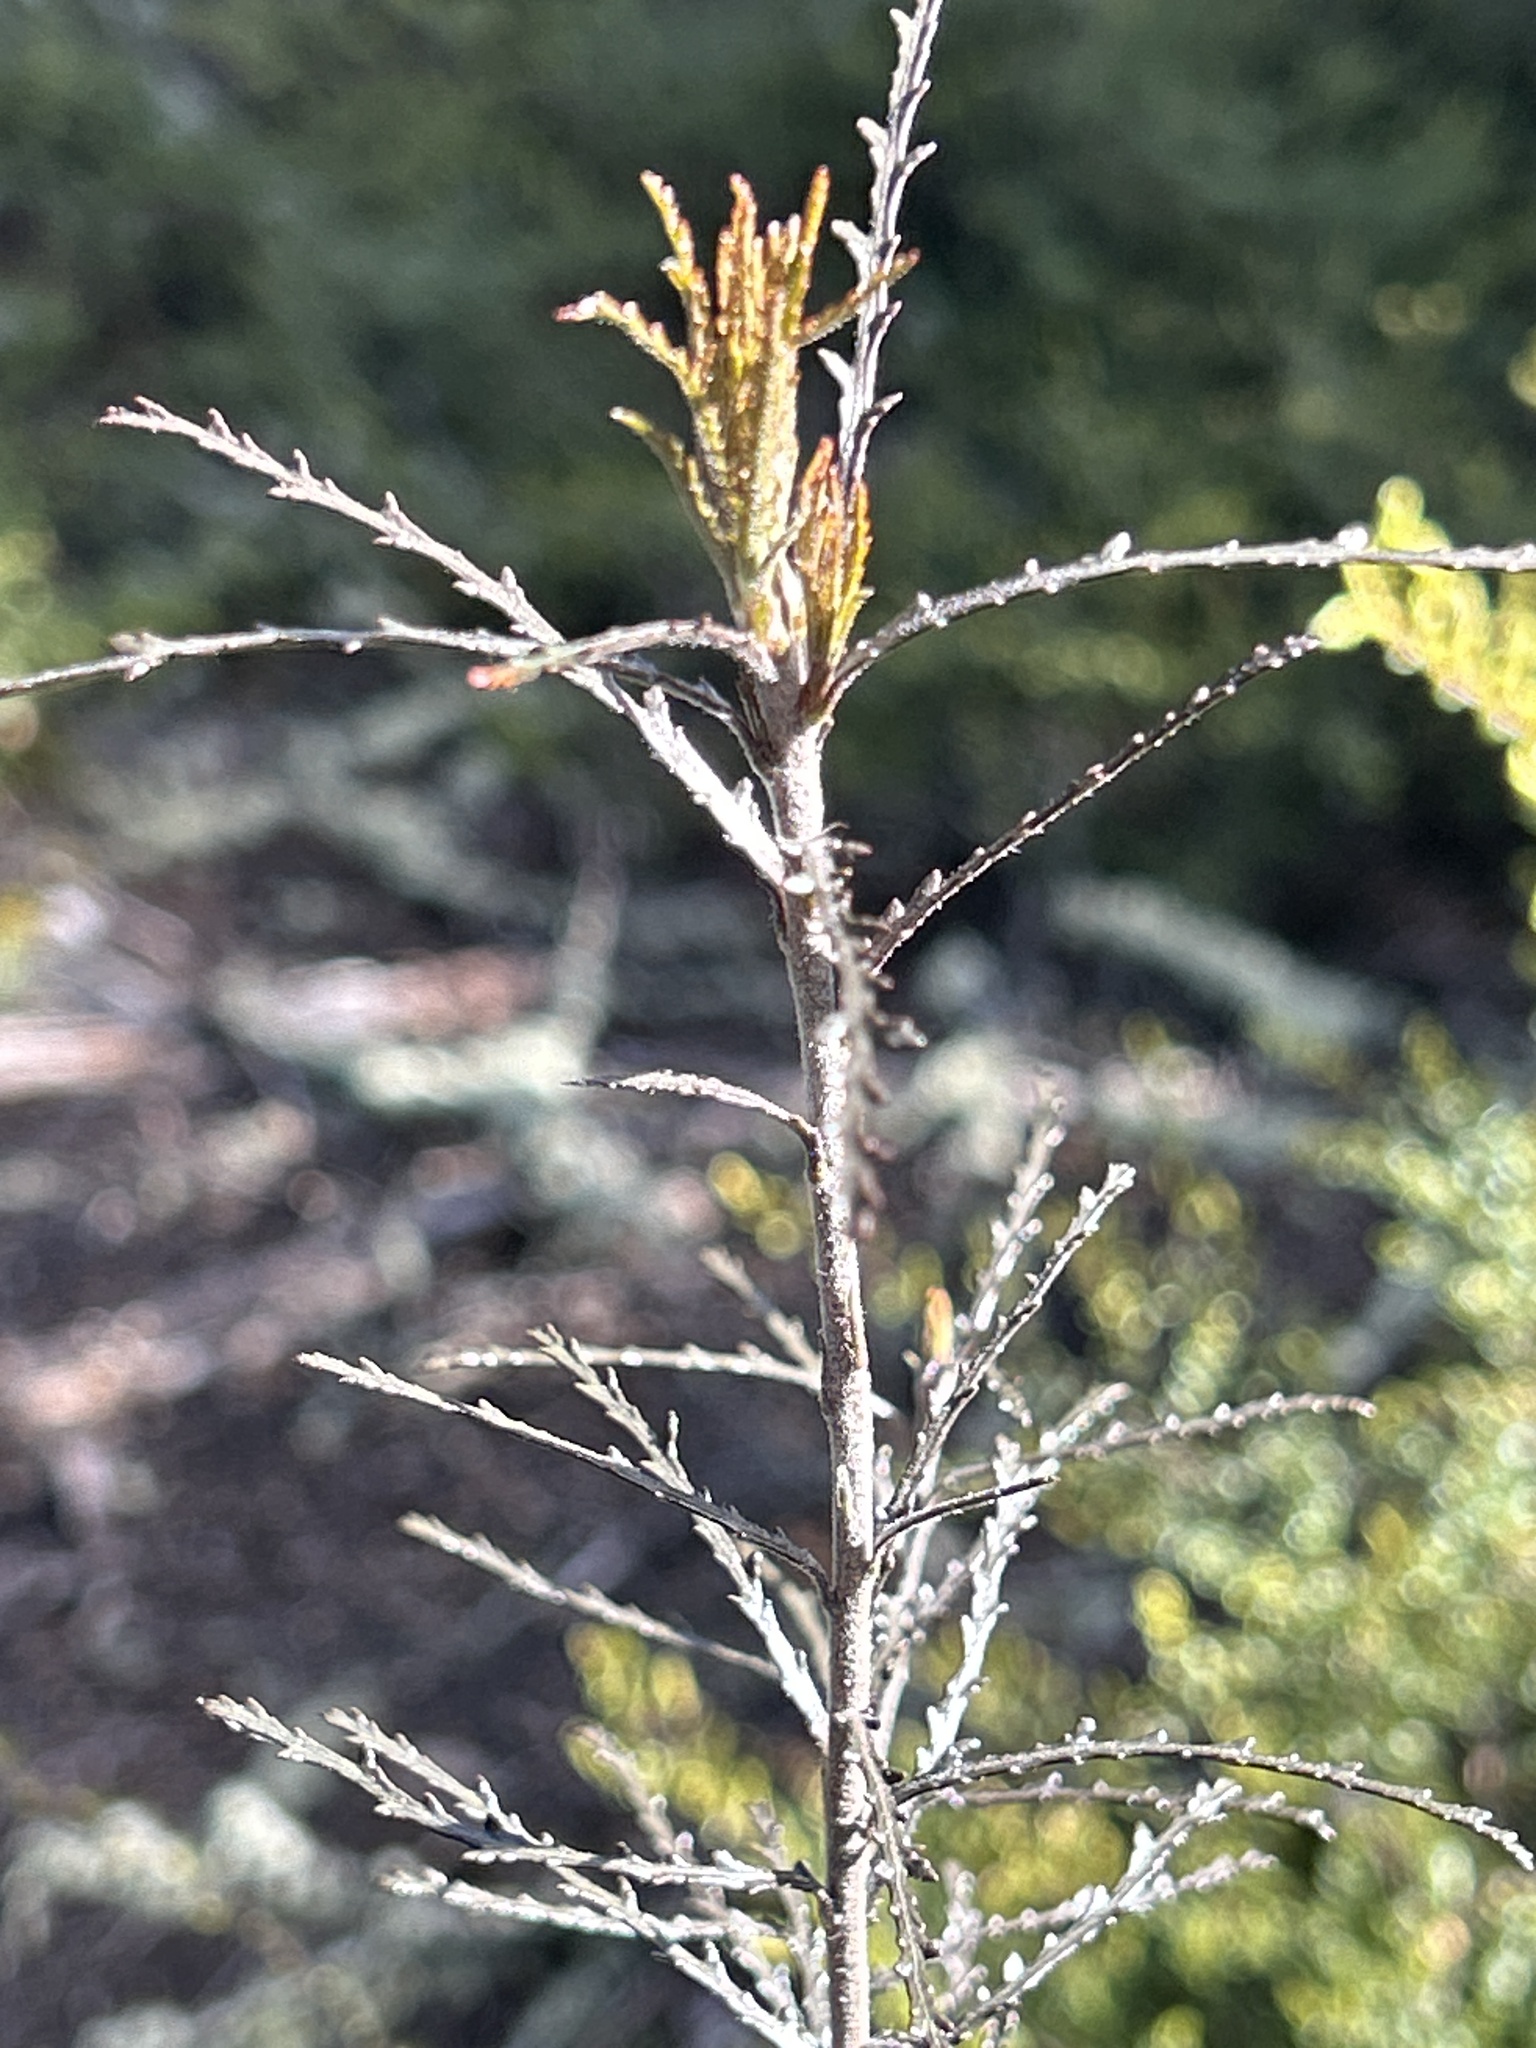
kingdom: Plantae
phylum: Tracheophyta
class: Magnoliopsida
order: Apiales
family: Pittosporaceae
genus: Pittosporum
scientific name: Pittosporum patulum
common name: Pitpat
